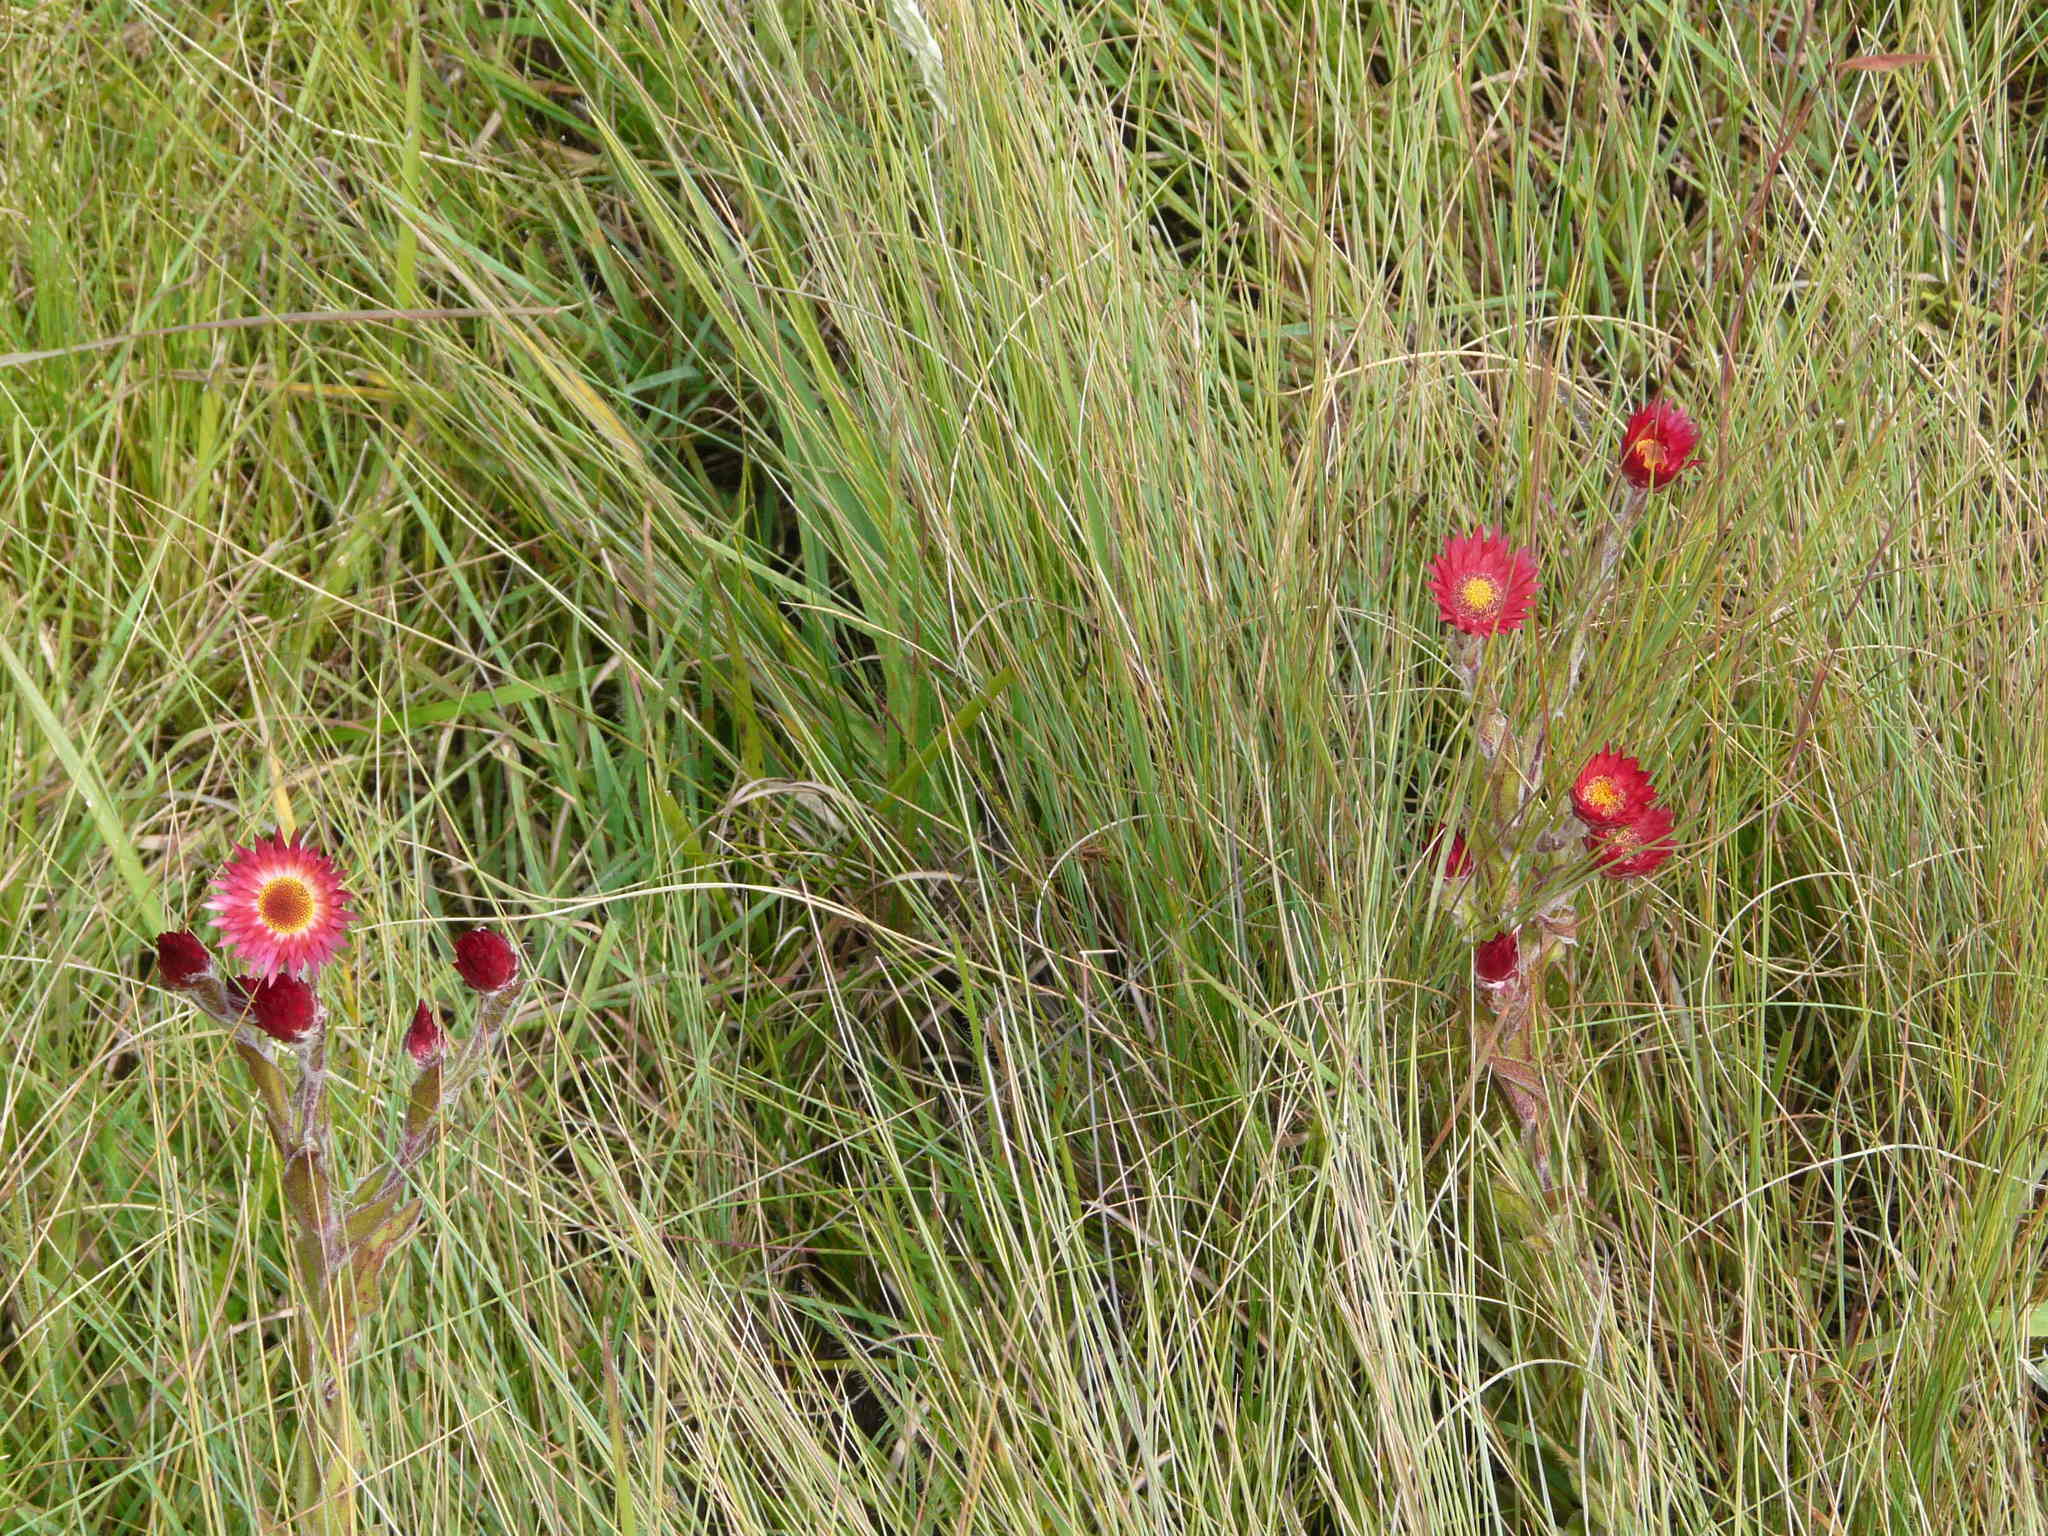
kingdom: Plantae
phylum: Tracheophyta
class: Magnoliopsida
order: Asterales
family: Asteraceae
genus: Helichrysum
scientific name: Helichrysum adenocarpum
